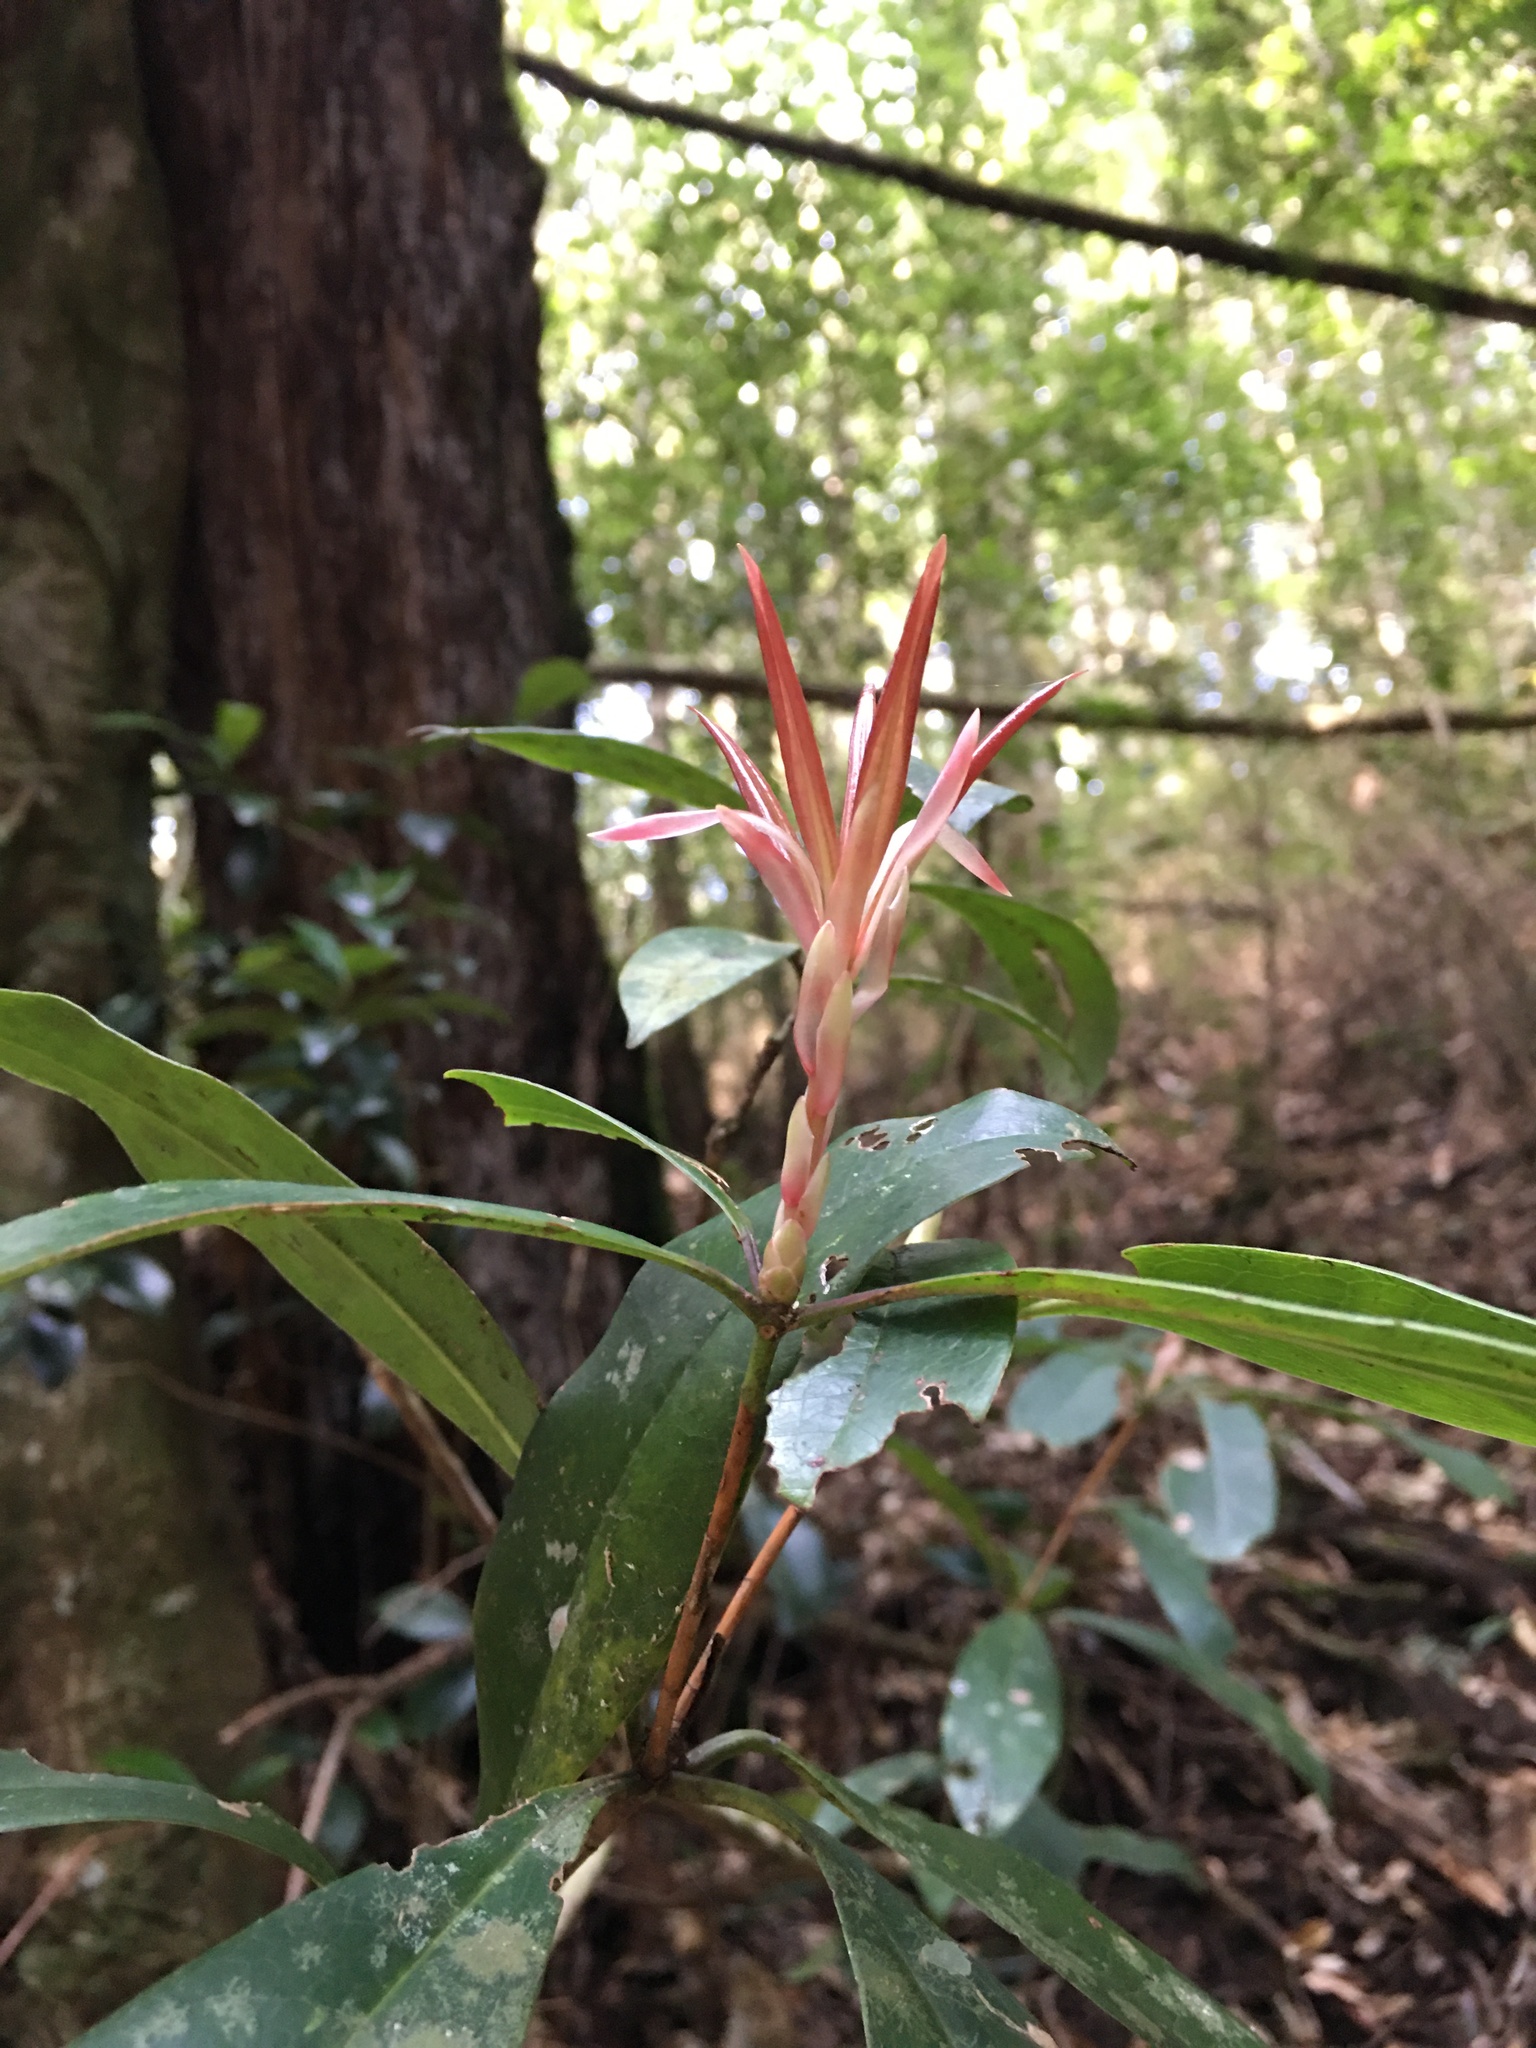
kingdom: Plantae
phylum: Tracheophyta
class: Magnoliopsida
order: Ericales
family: Ericaceae
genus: Rhododendron
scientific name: Rhododendron latoucheae
